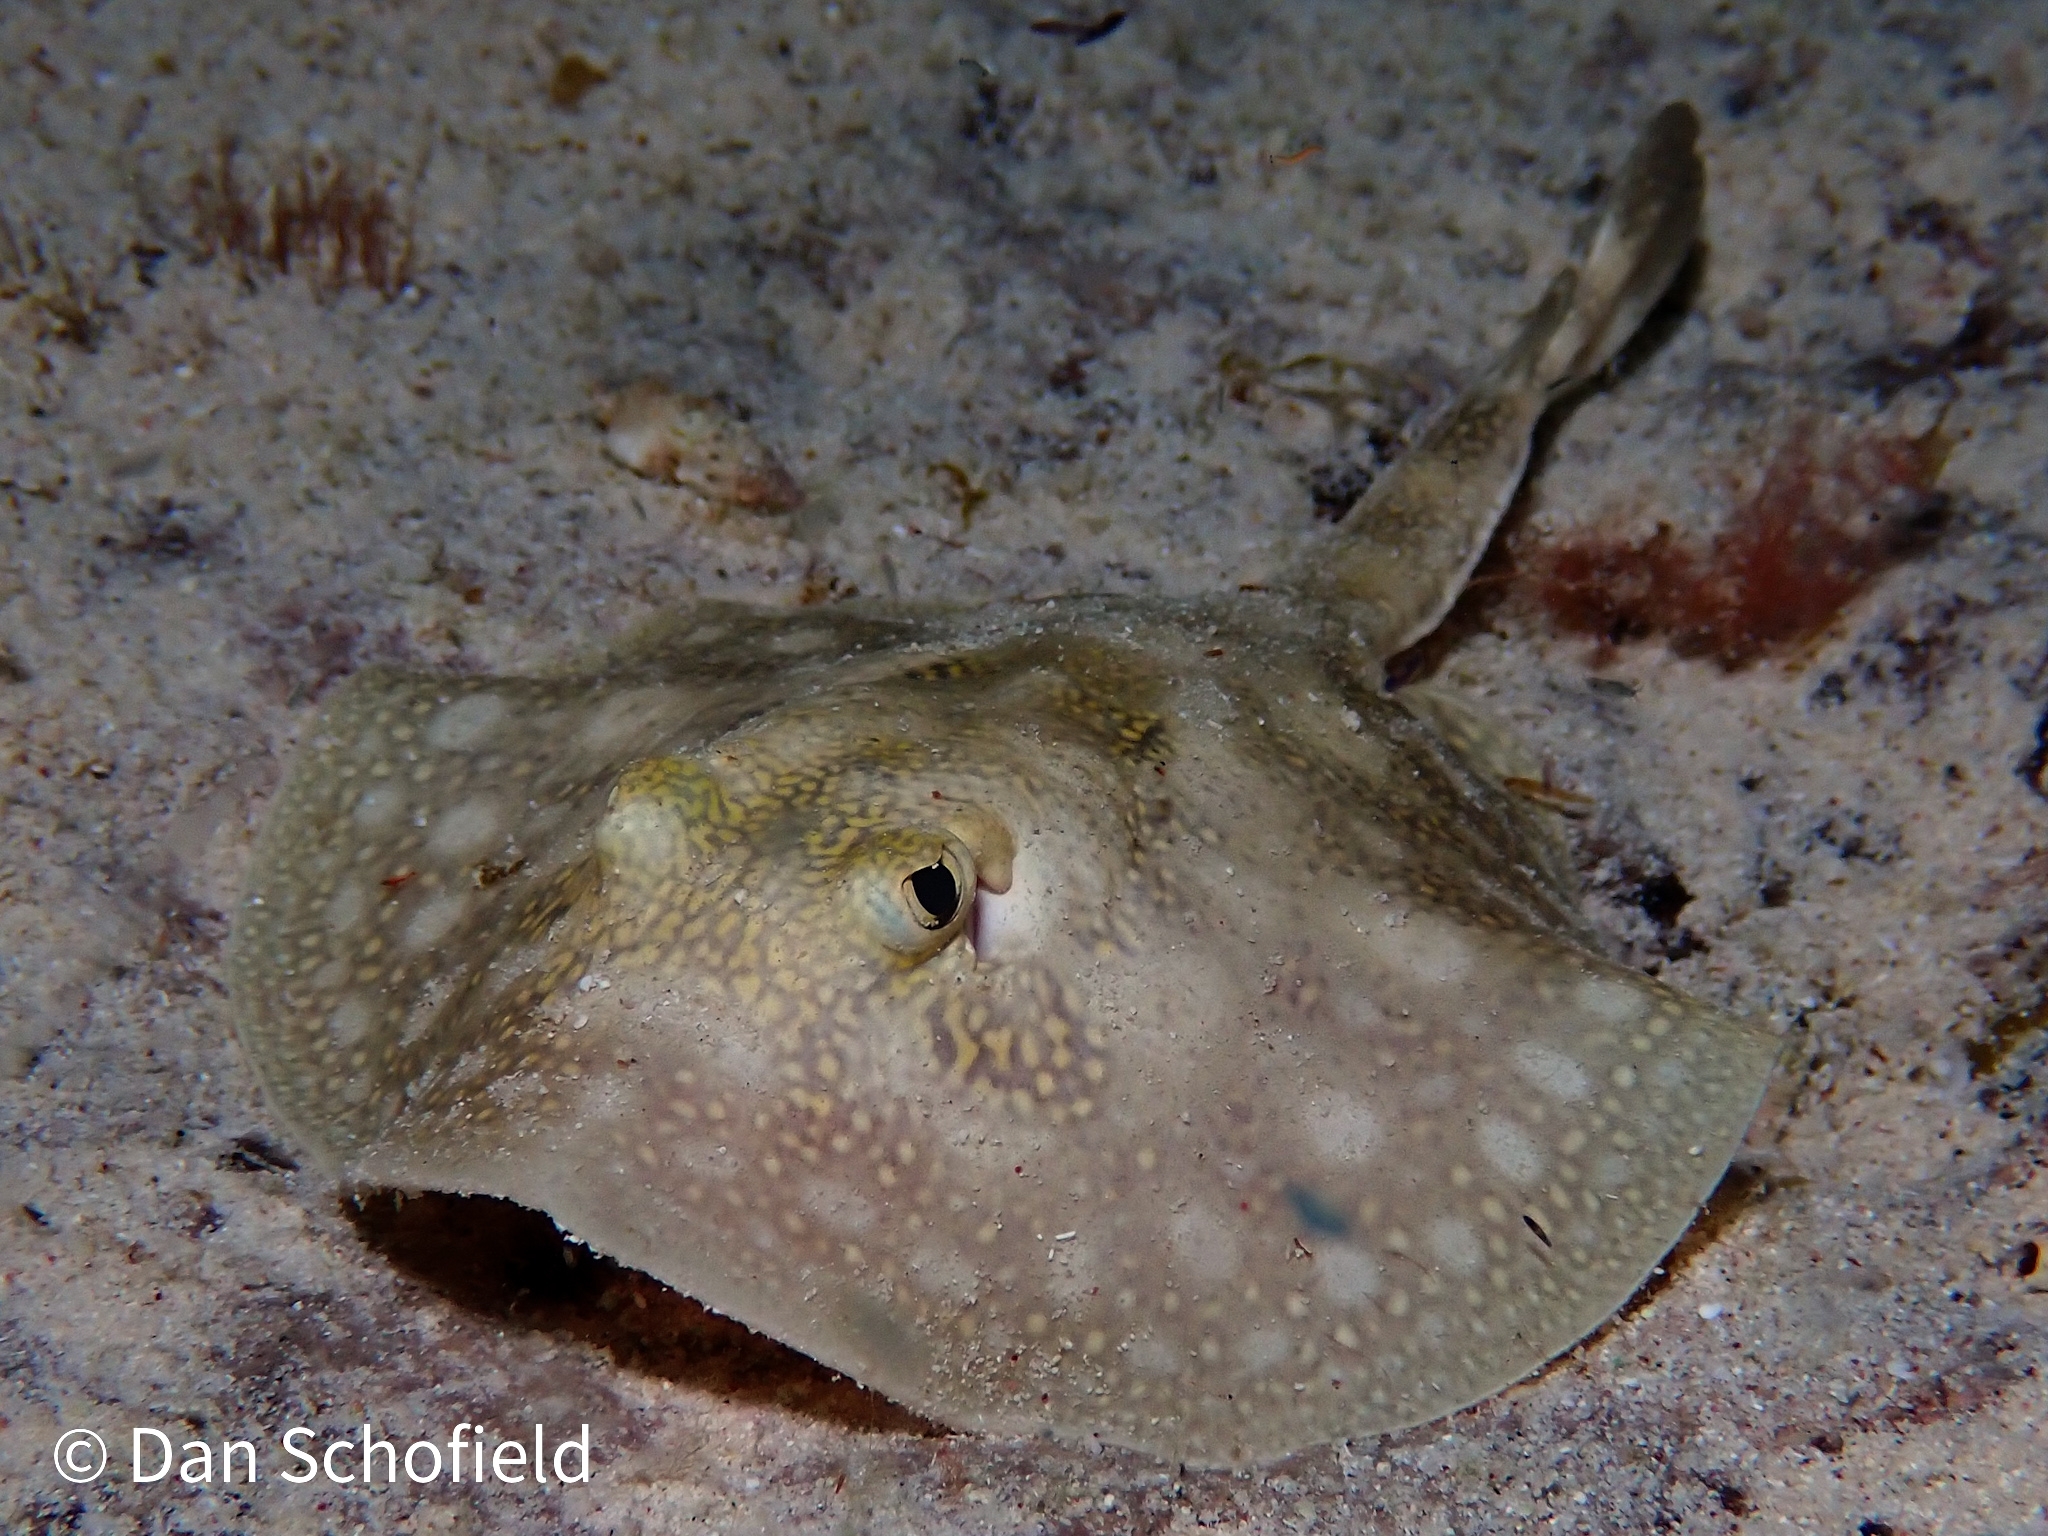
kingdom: Animalia
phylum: Chordata
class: Elasmobranchii
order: Myliobatiformes
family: Urotrygonidae
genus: Urobatis
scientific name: Urobatis jamaicensis
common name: Yellow stingray
